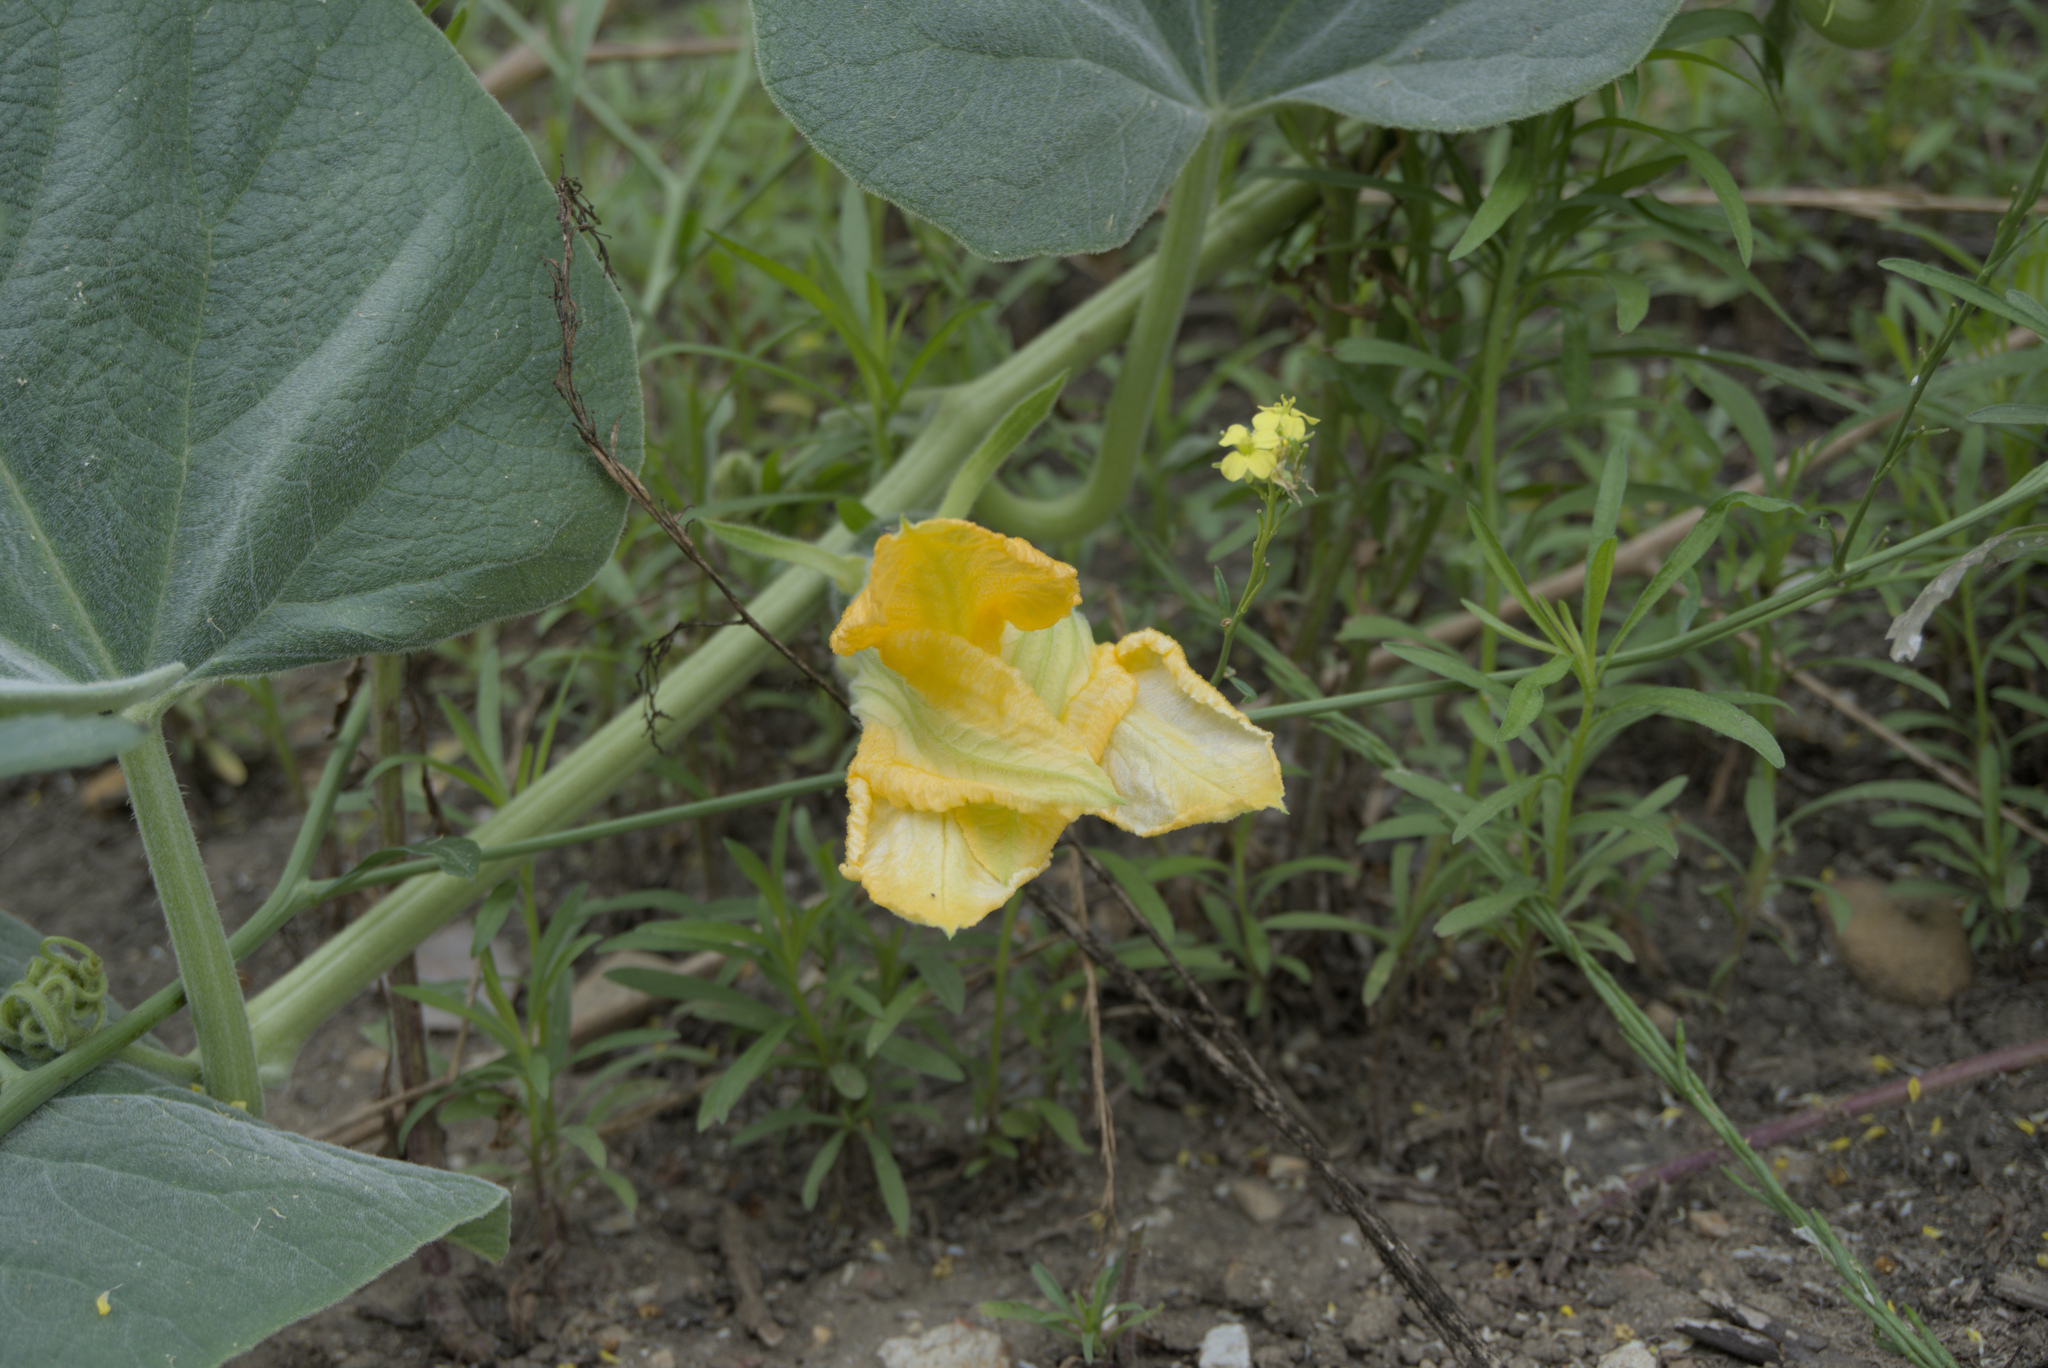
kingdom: Plantae
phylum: Tracheophyta
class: Magnoliopsida
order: Cucurbitales
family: Cucurbitaceae
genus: Cucurbita
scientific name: Cucurbita foetidissima
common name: Buffalo gourd
